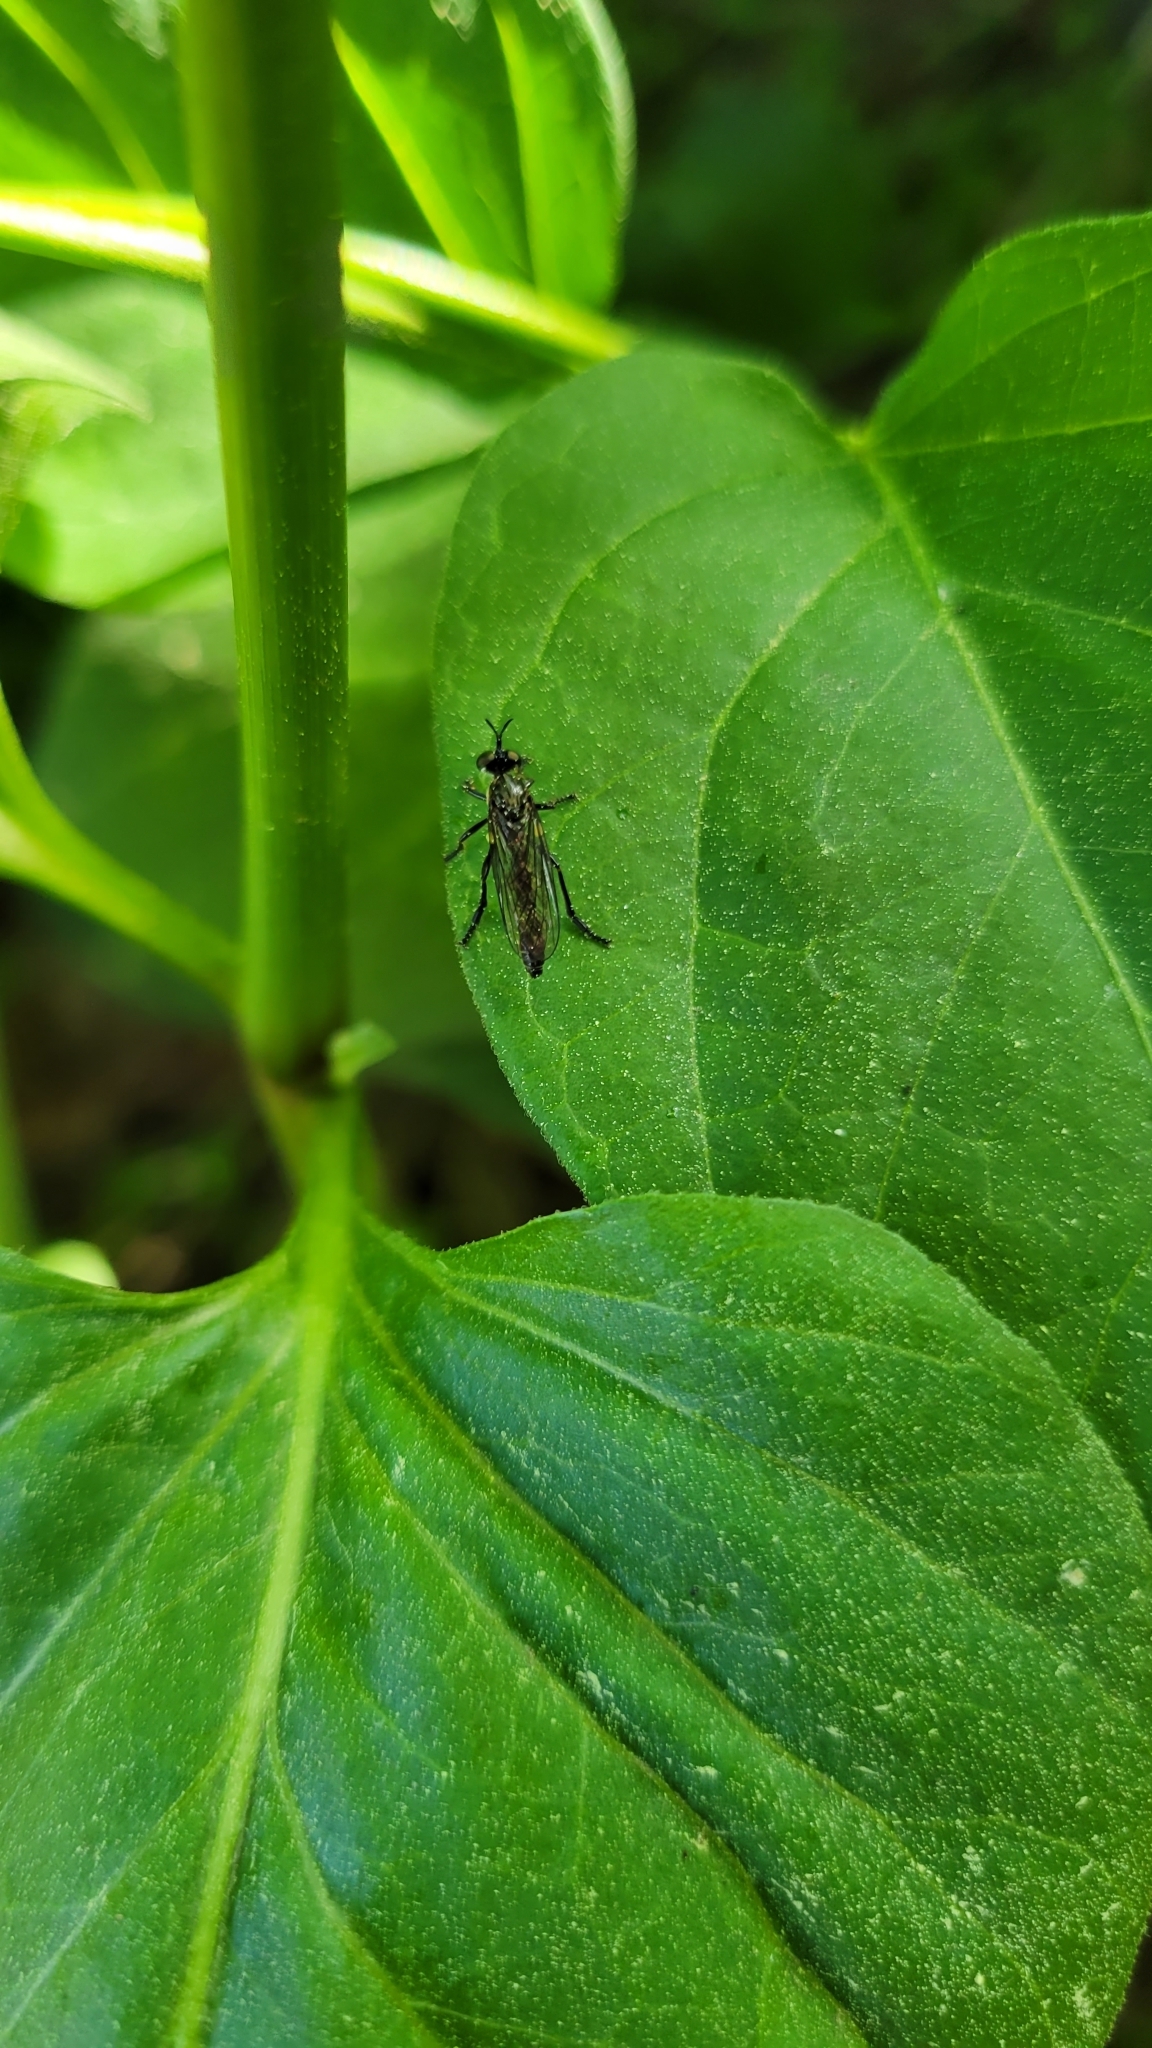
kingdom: Animalia
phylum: Arthropoda
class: Insecta
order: Diptera
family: Asilidae
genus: Dioctria
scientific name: Dioctria hyalipennis
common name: Stripe-legged robberfly
